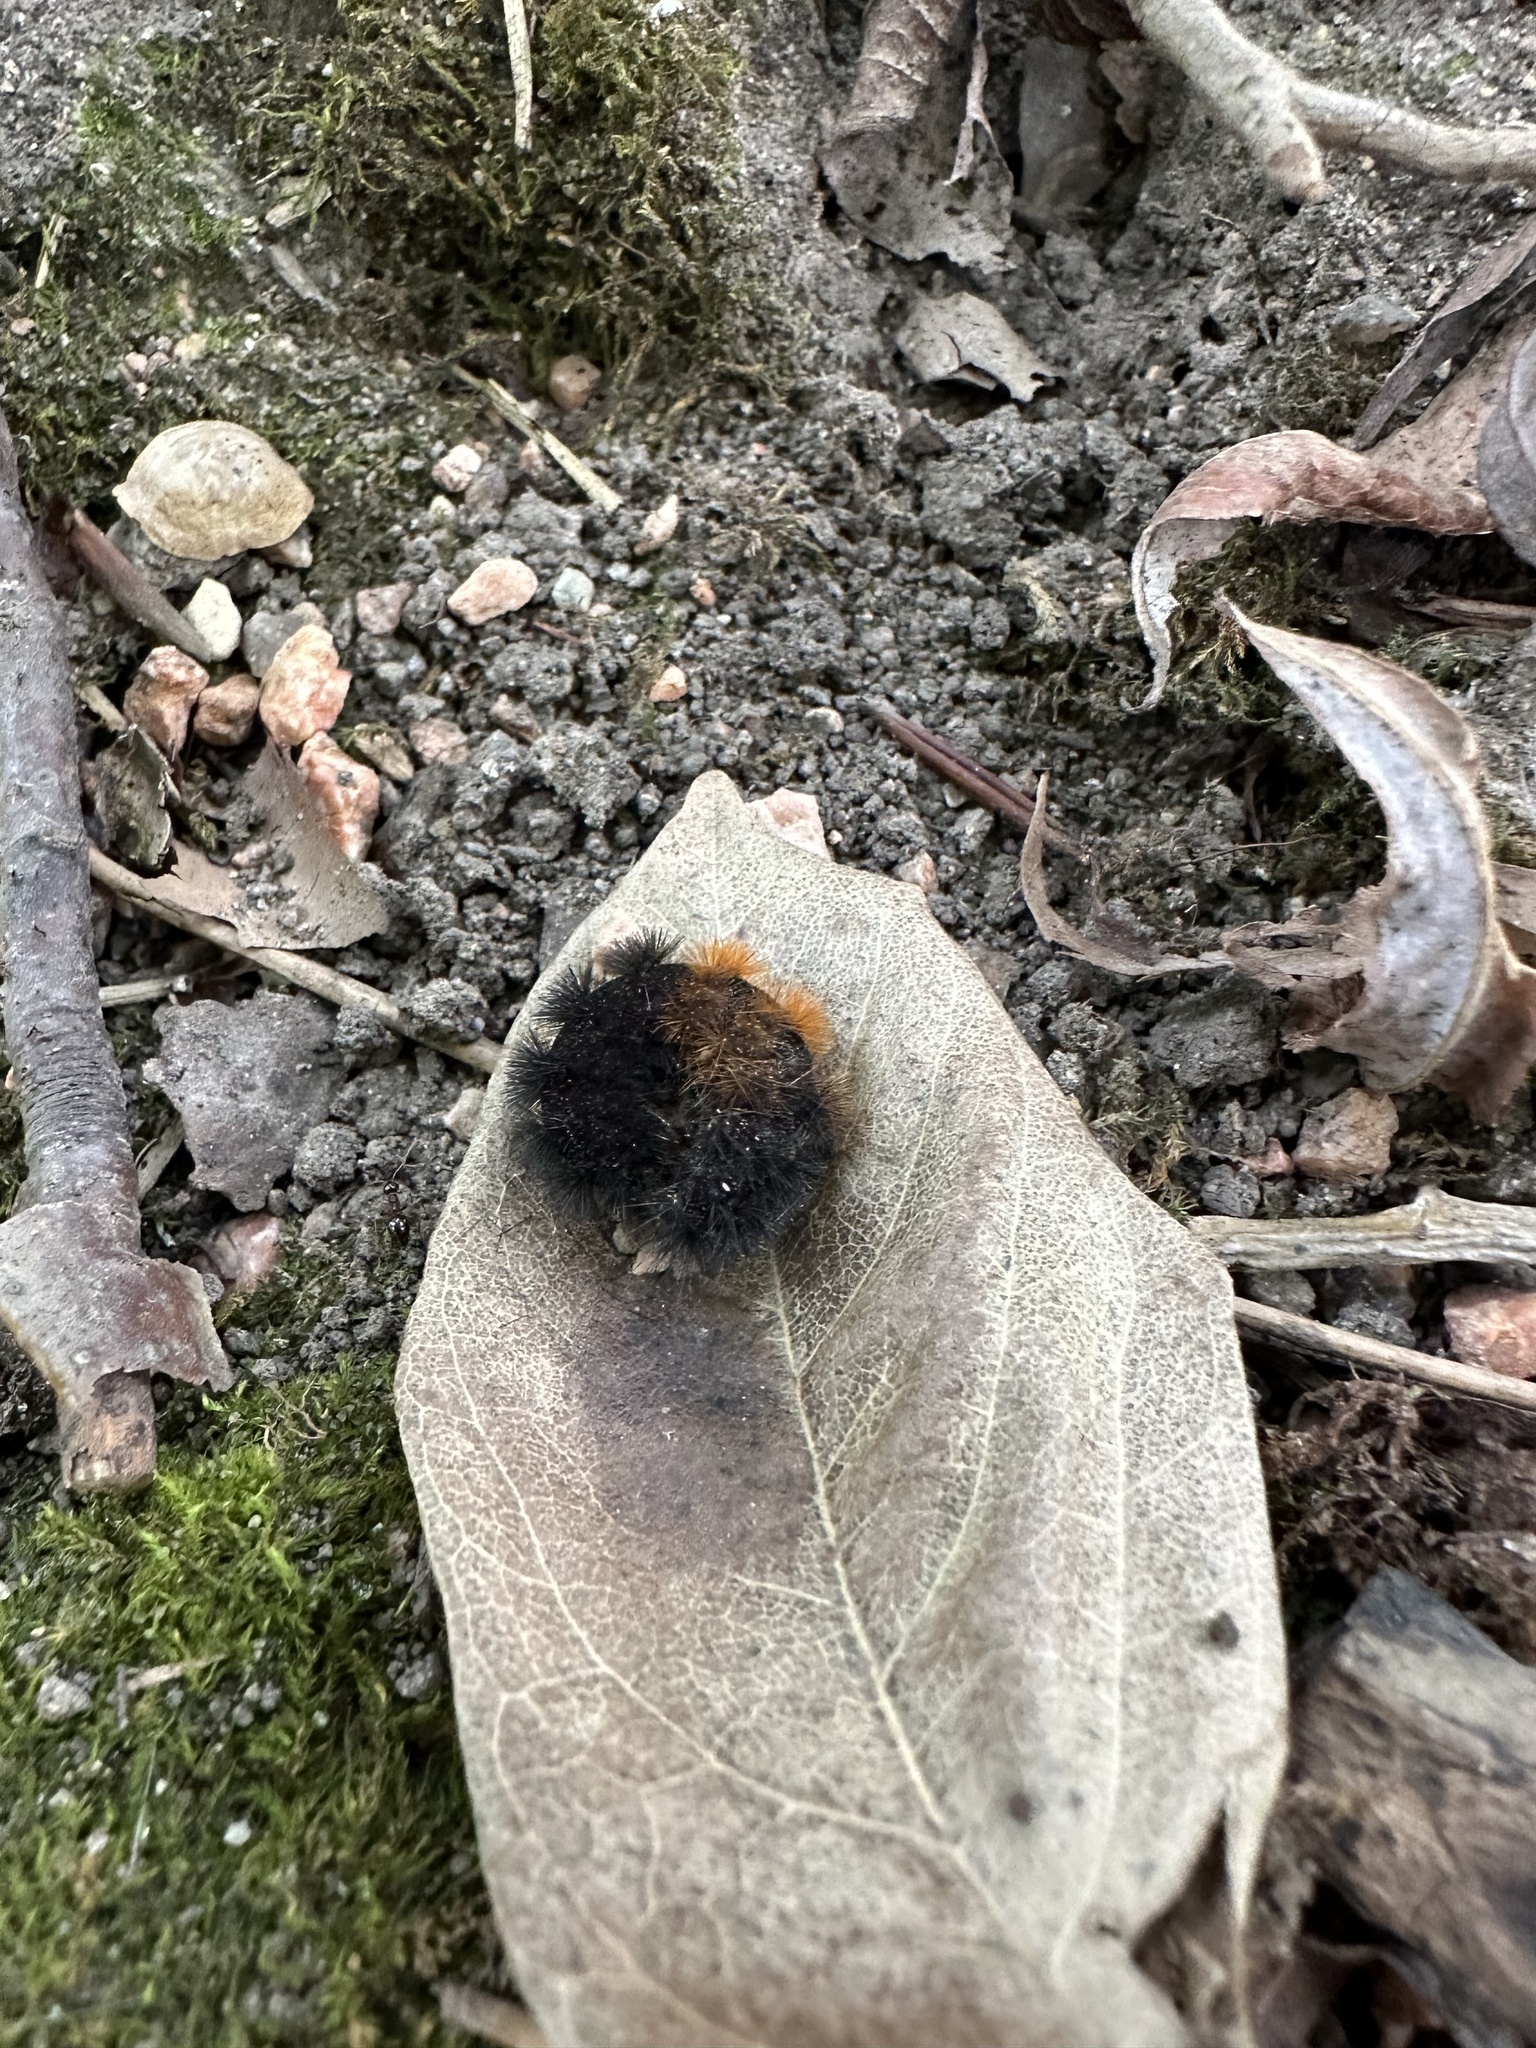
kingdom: Animalia
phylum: Arthropoda
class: Insecta
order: Lepidoptera
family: Erebidae
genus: Pyrrharctia
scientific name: Pyrrharctia isabella
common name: Isabella tiger moth
